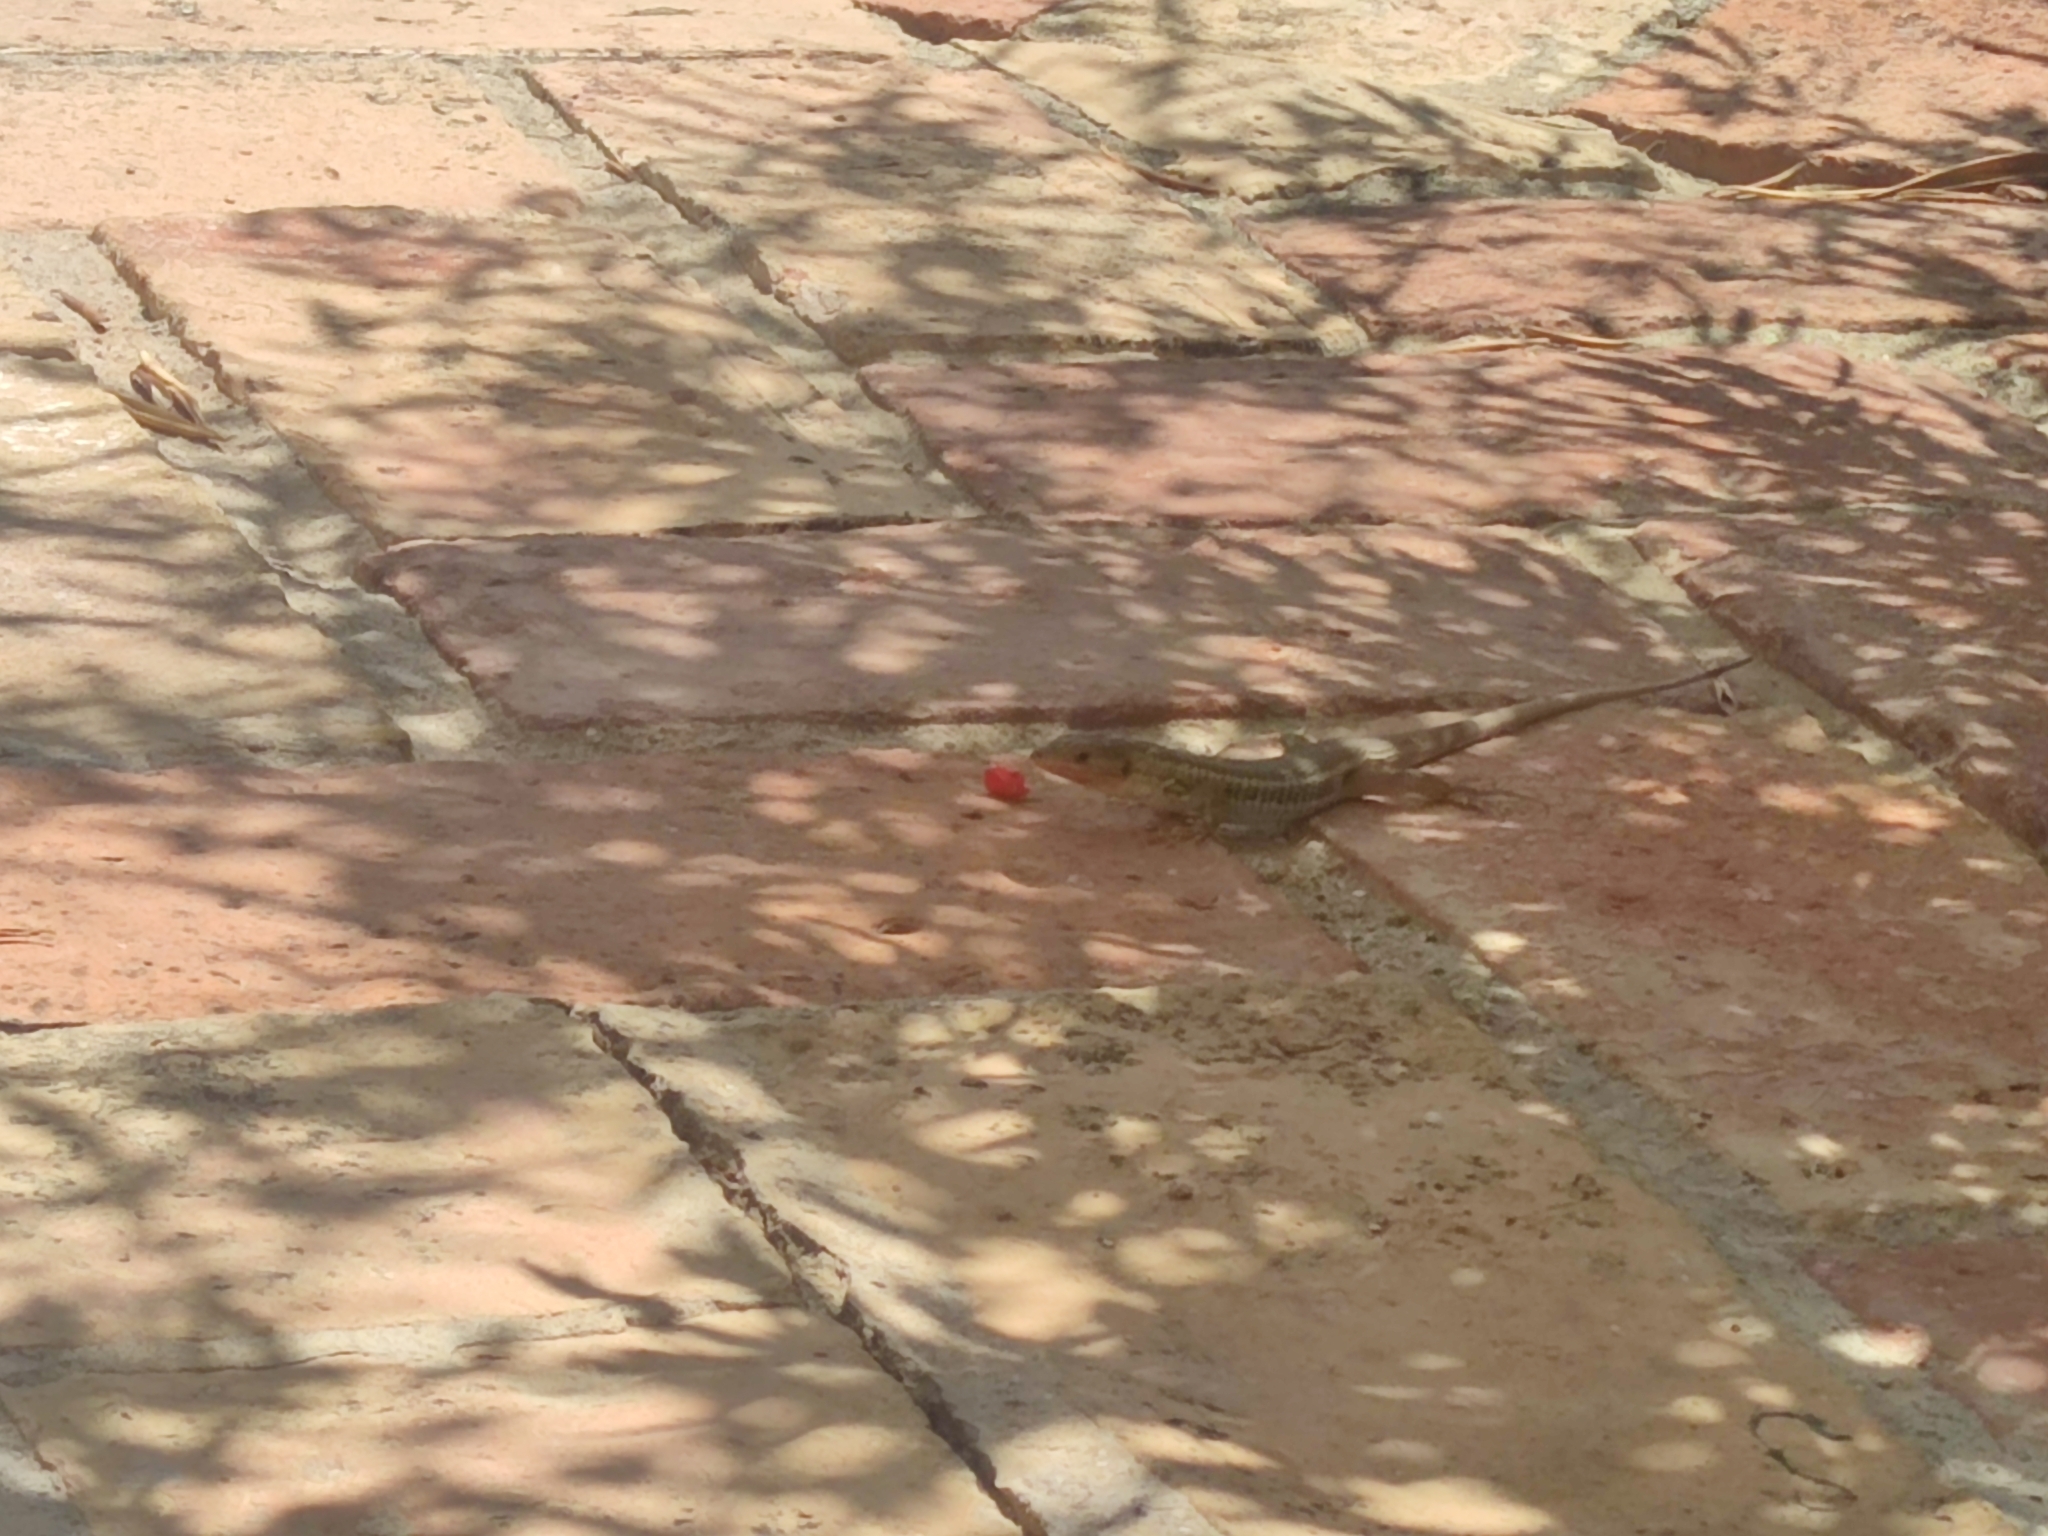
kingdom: Animalia
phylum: Chordata
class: Squamata
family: Lacertidae
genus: Psammodromus
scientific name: Psammodromus algirus
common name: Algerian psammodromus
